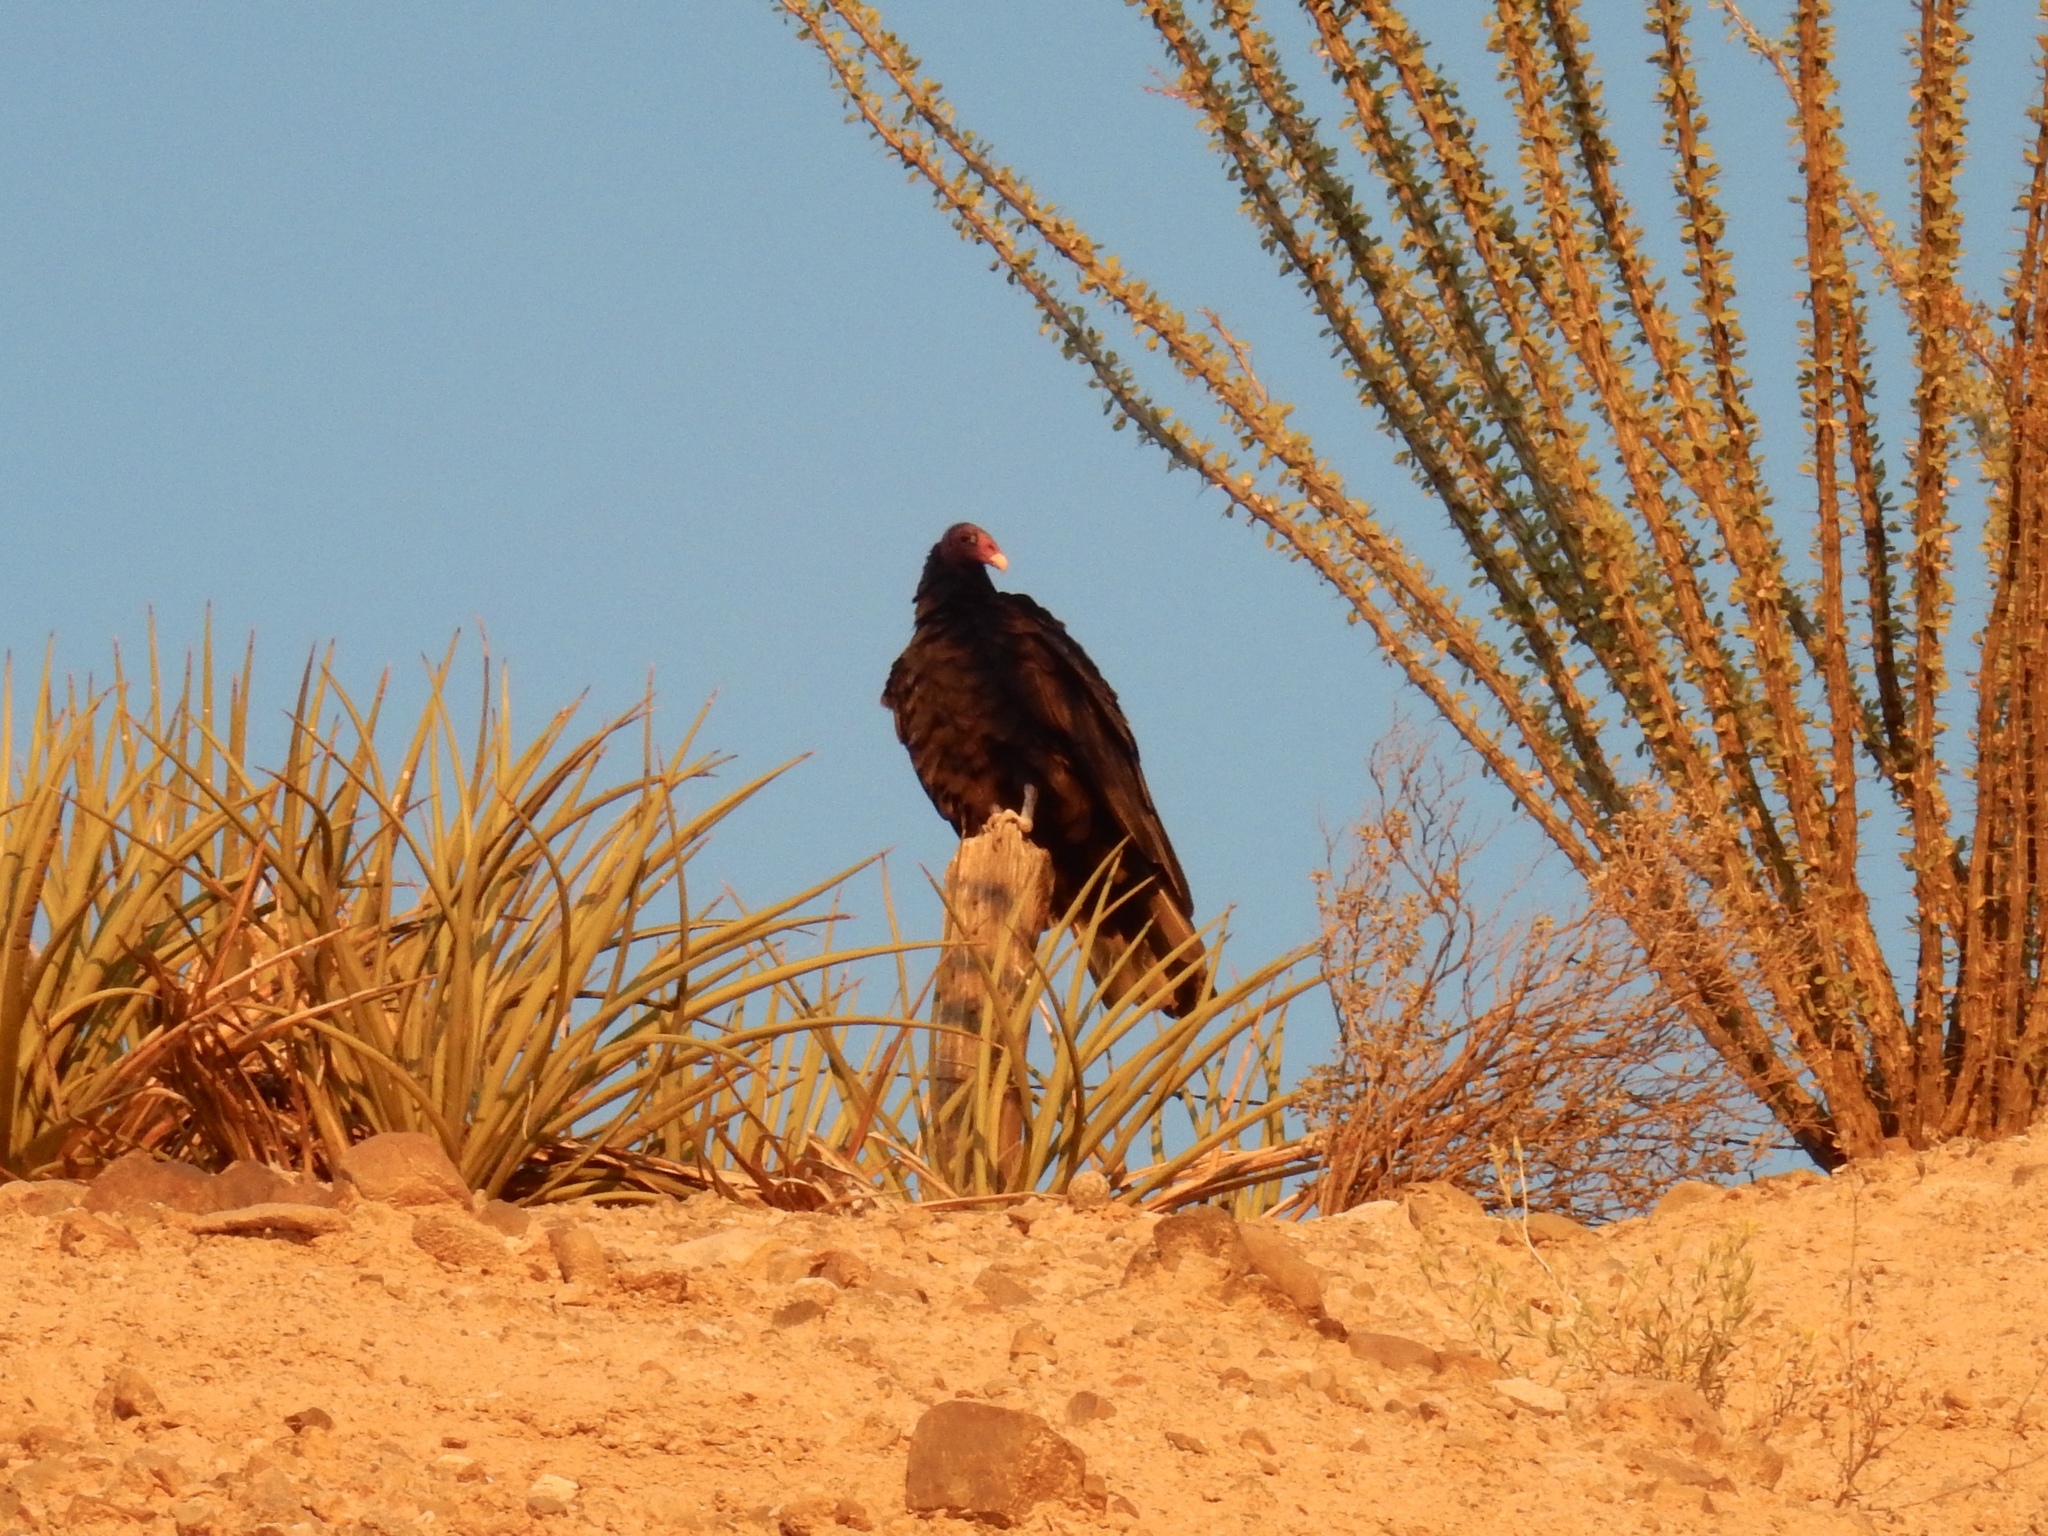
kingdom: Animalia
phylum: Chordata
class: Aves
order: Accipitriformes
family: Cathartidae
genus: Cathartes
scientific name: Cathartes aura
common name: Turkey vulture
